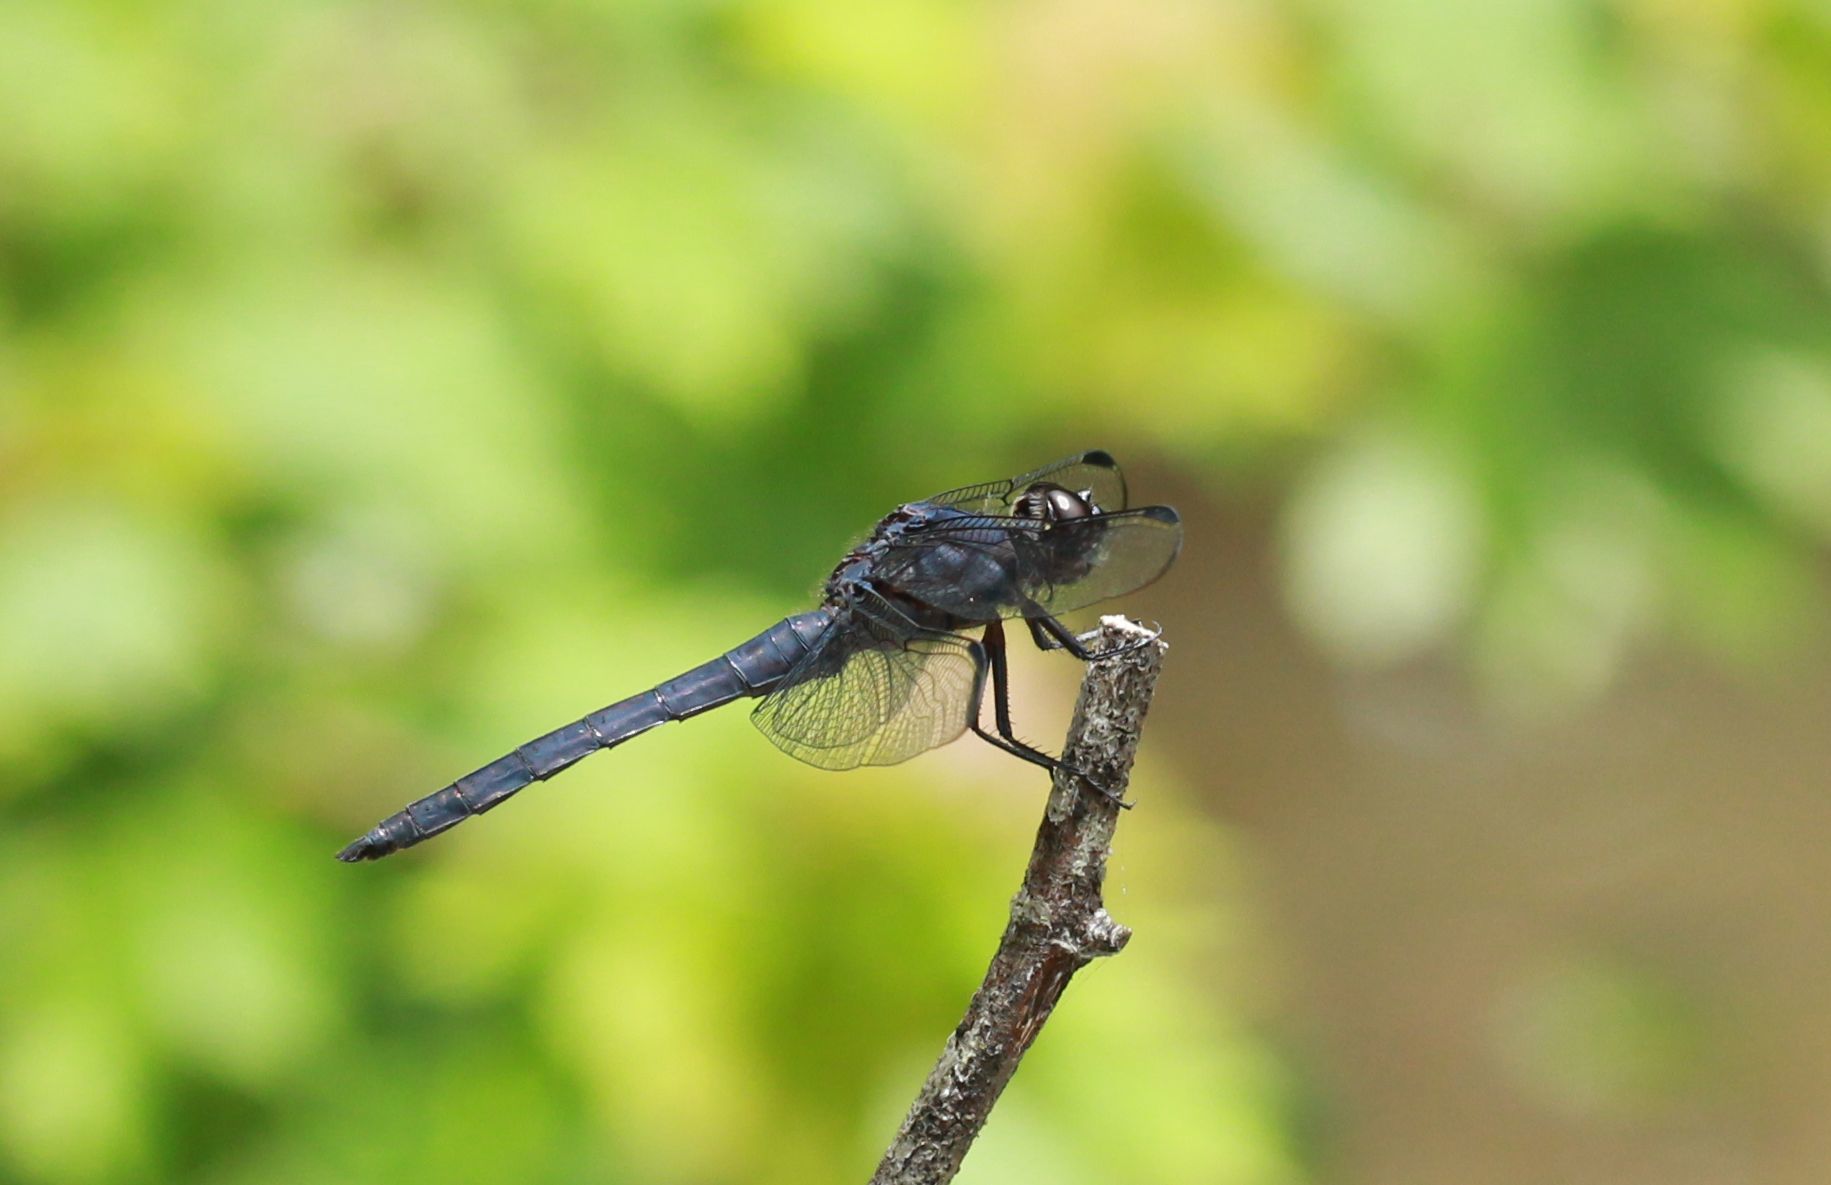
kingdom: Animalia
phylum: Arthropoda
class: Insecta
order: Odonata
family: Libellulidae
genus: Libellula
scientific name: Libellula incesta
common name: Slaty skimmer
